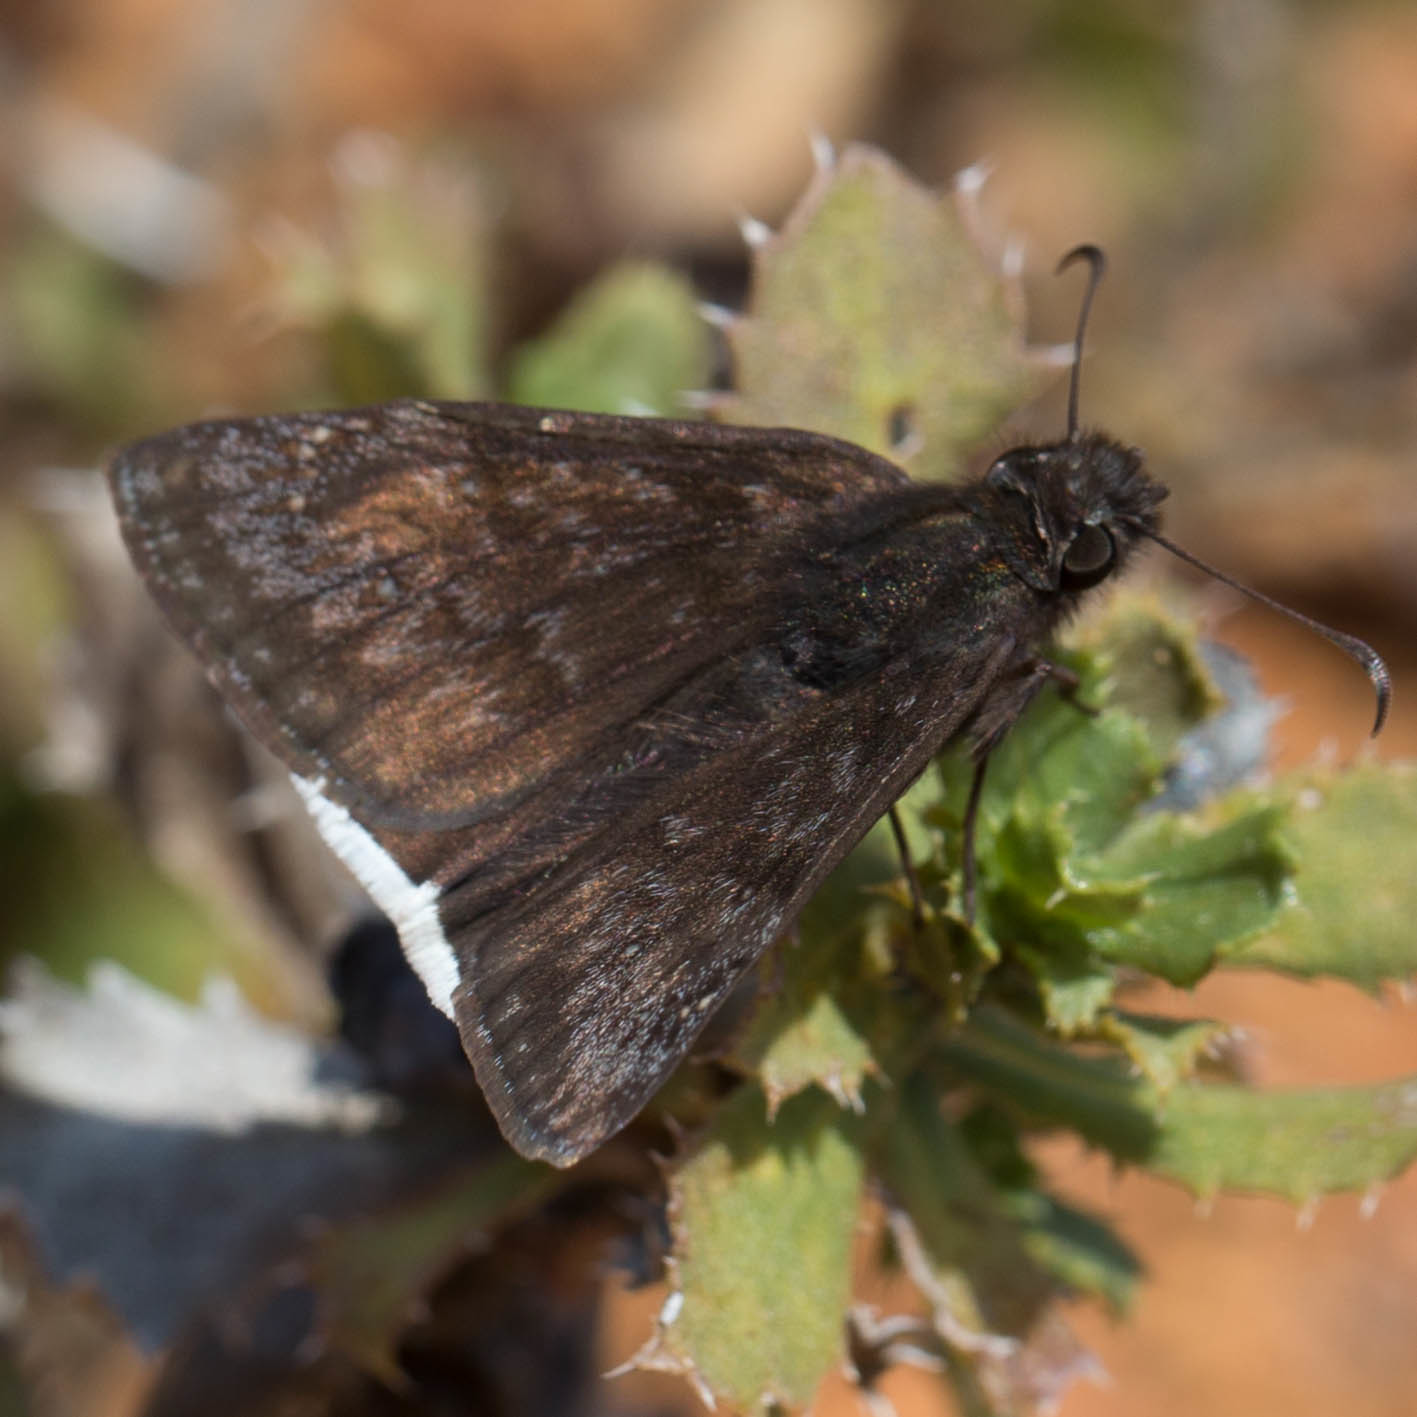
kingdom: Animalia
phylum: Arthropoda
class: Insecta
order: Lepidoptera
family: Hesperiidae
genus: Erynnis
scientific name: Erynnis tristis
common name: Mournful duskywing
